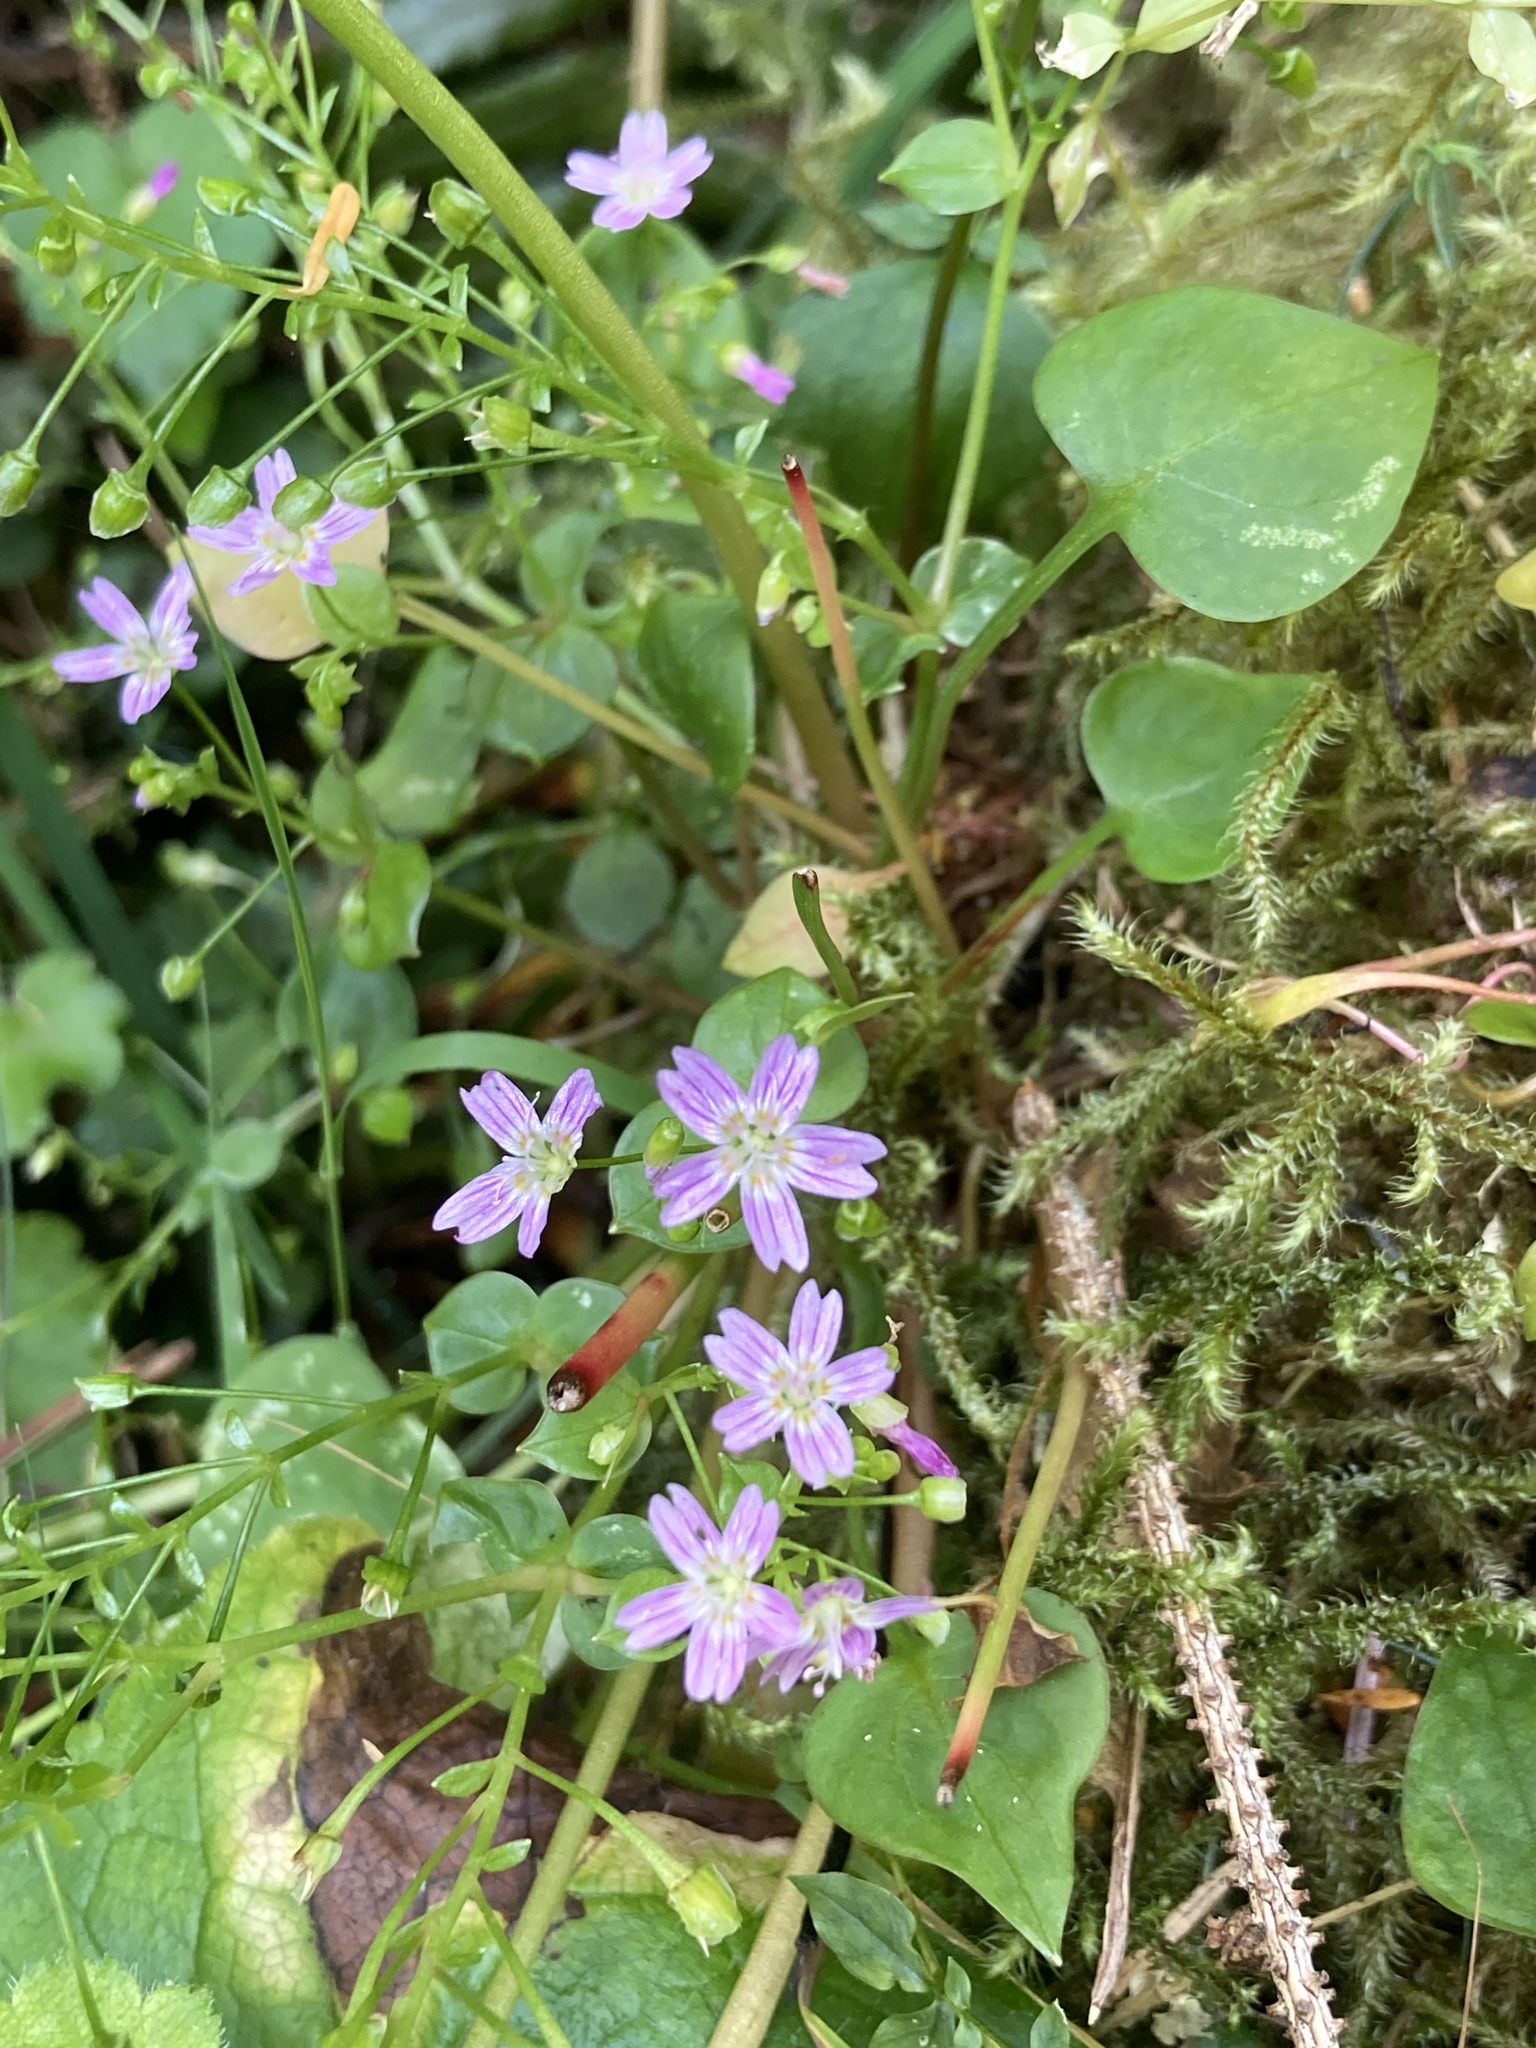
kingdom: Plantae
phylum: Tracheophyta
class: Magnoliopsida
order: Caryophyllales
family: Montiaceae
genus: Claytonia
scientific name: Claytonia sibirica
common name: Pink purslane
